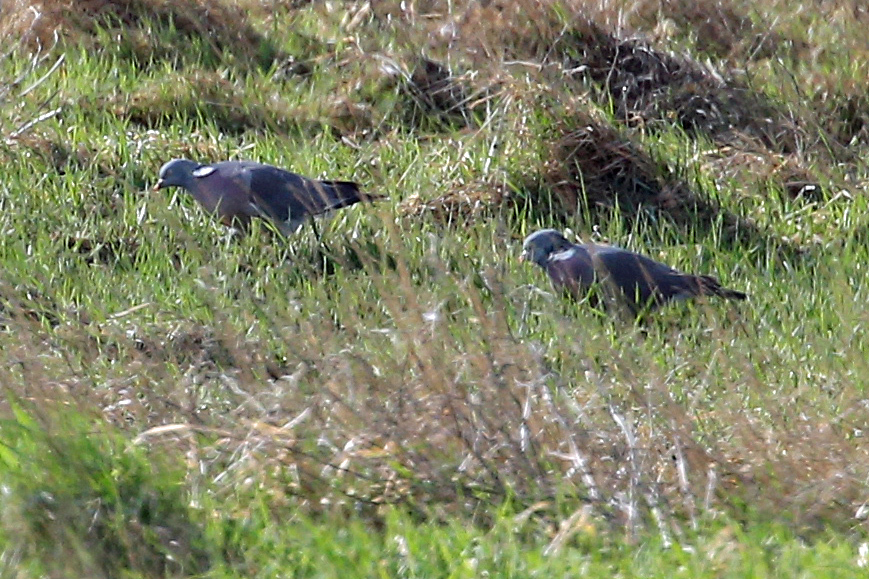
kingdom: Animalia
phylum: Chordata
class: Aves
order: Columbiformes
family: Columbidae
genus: Columba
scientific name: Columba palumbus
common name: Common wood pigeon
